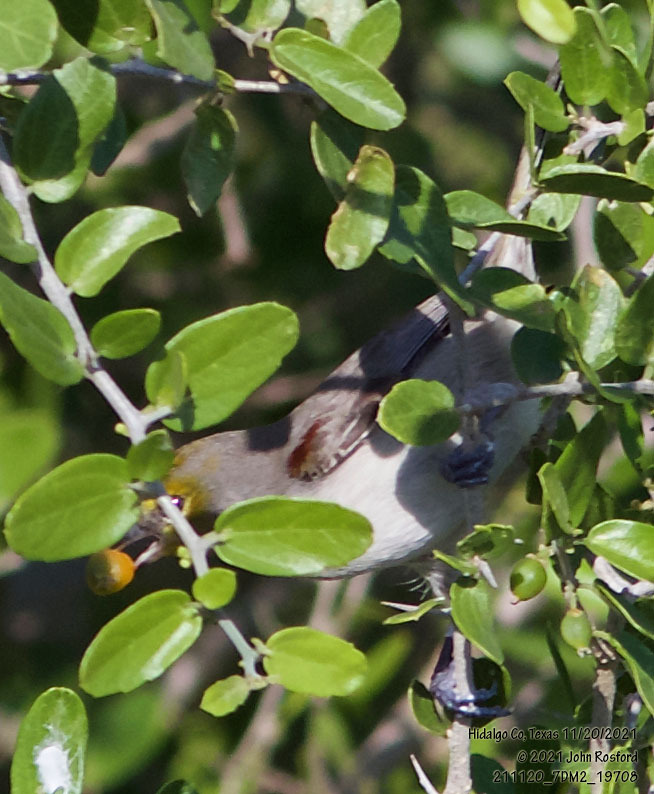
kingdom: Animalia
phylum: Chordata
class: Aves
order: Passeriformes
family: Remizidae
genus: Auriparus
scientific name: Auriparus flaviceps
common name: Verdin
